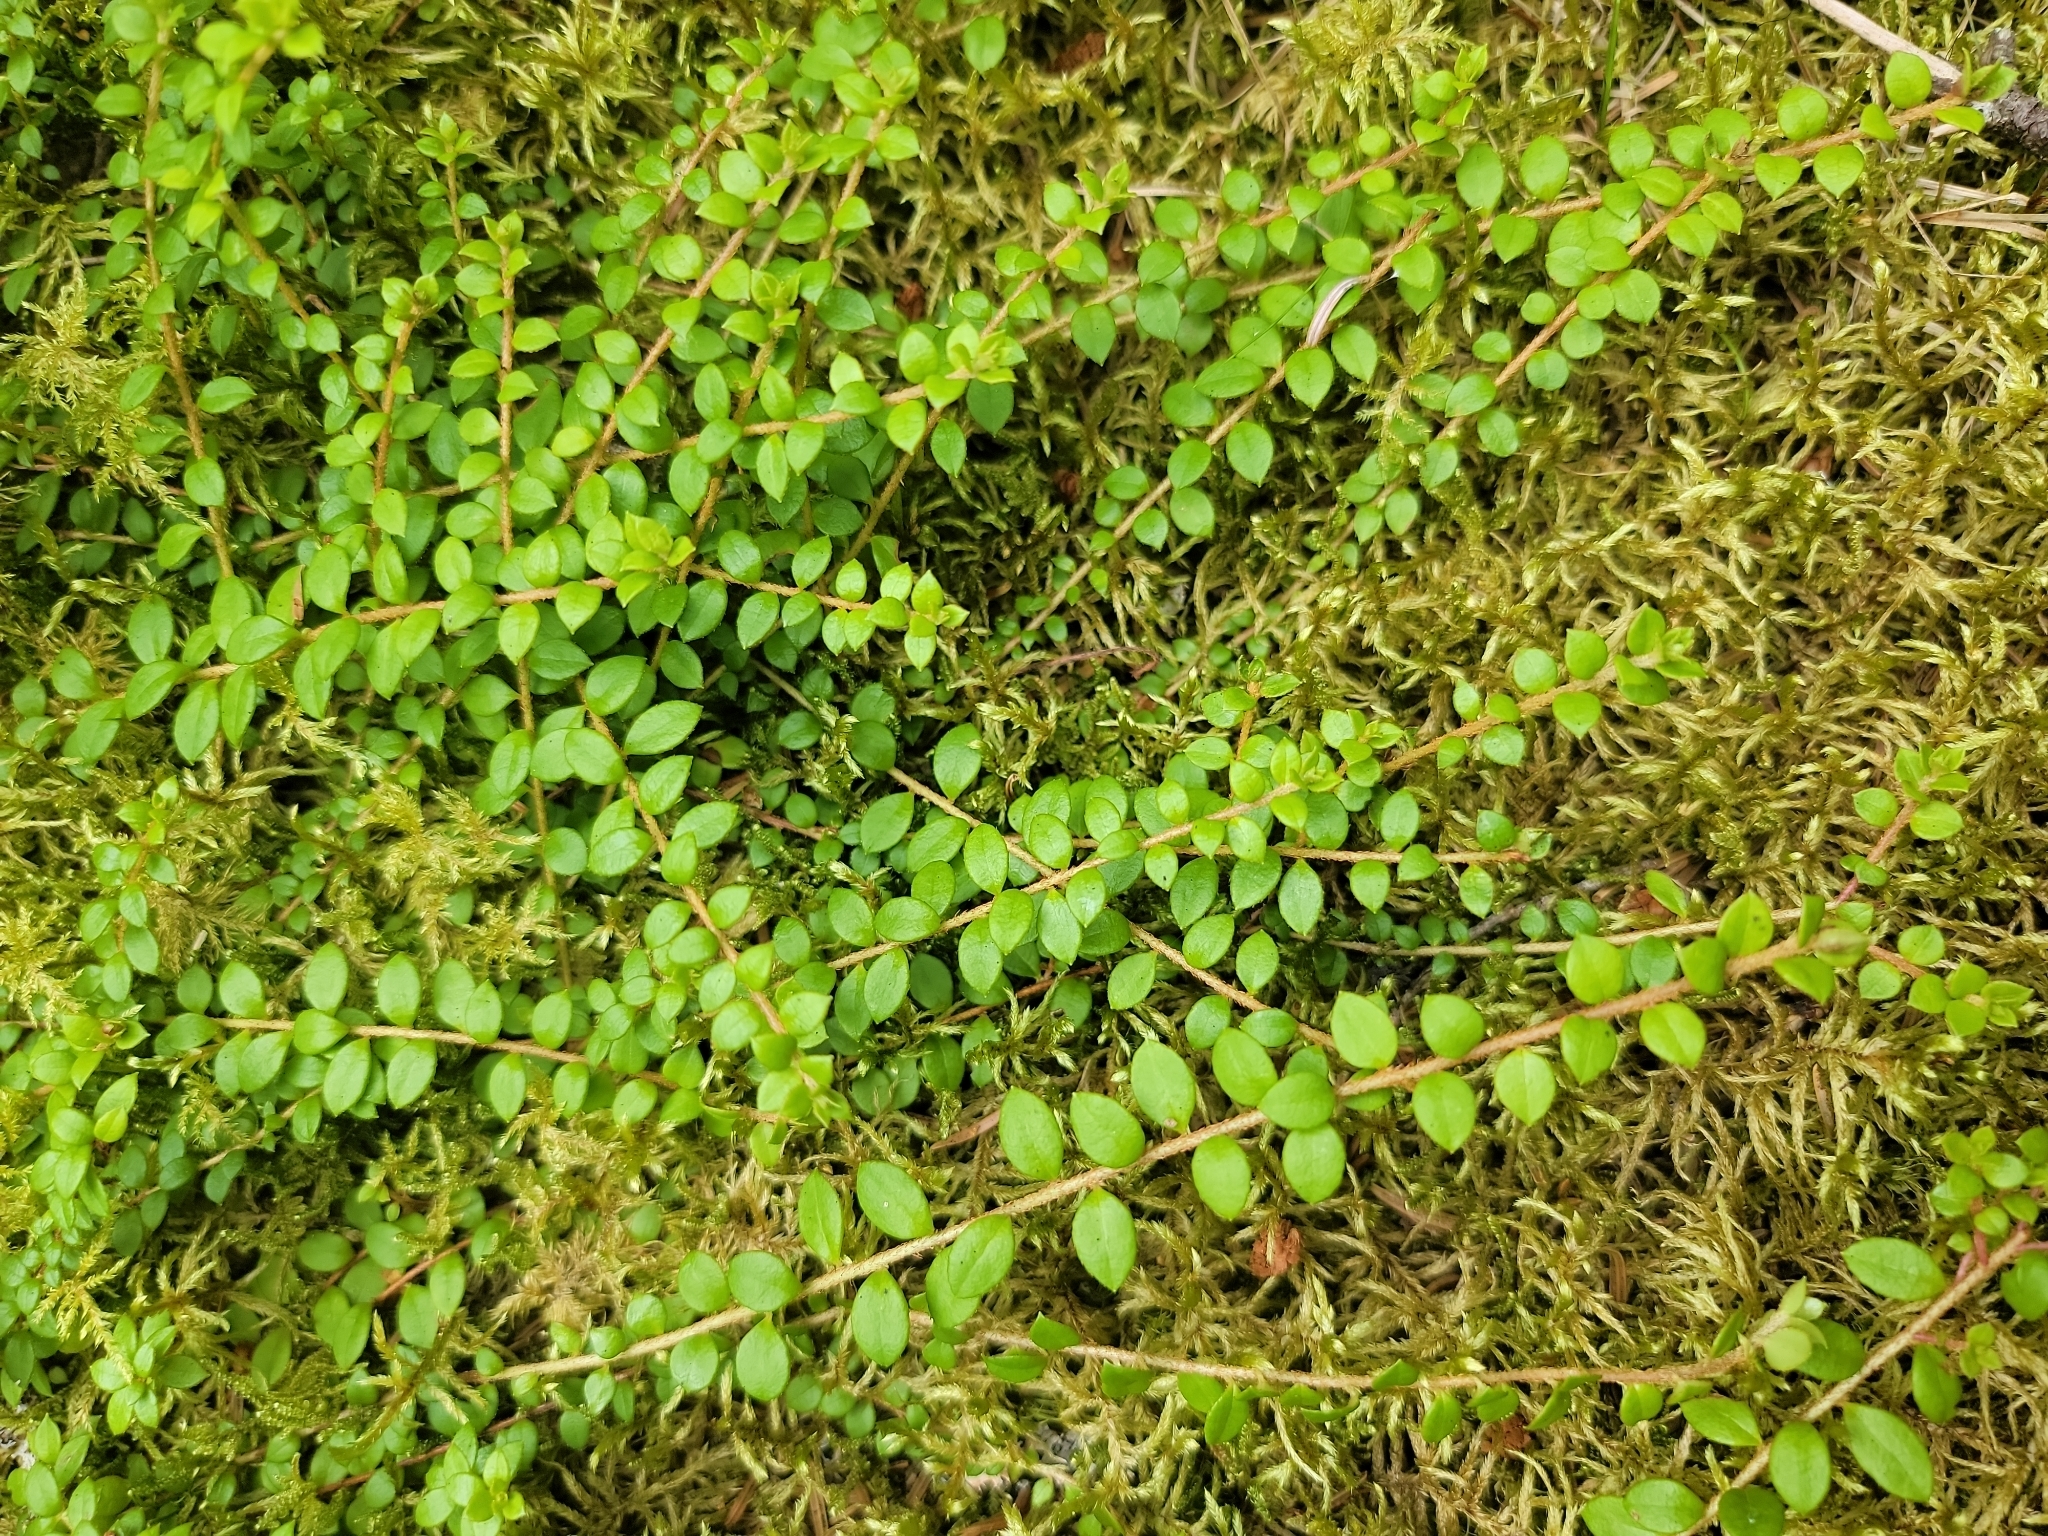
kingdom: Plantae
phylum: Tracheophyta
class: Magnoliopsida
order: Ericales
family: Ericaceae
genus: Gaultheria
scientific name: Gaultheria hispidula
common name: Cancer wintergreen
